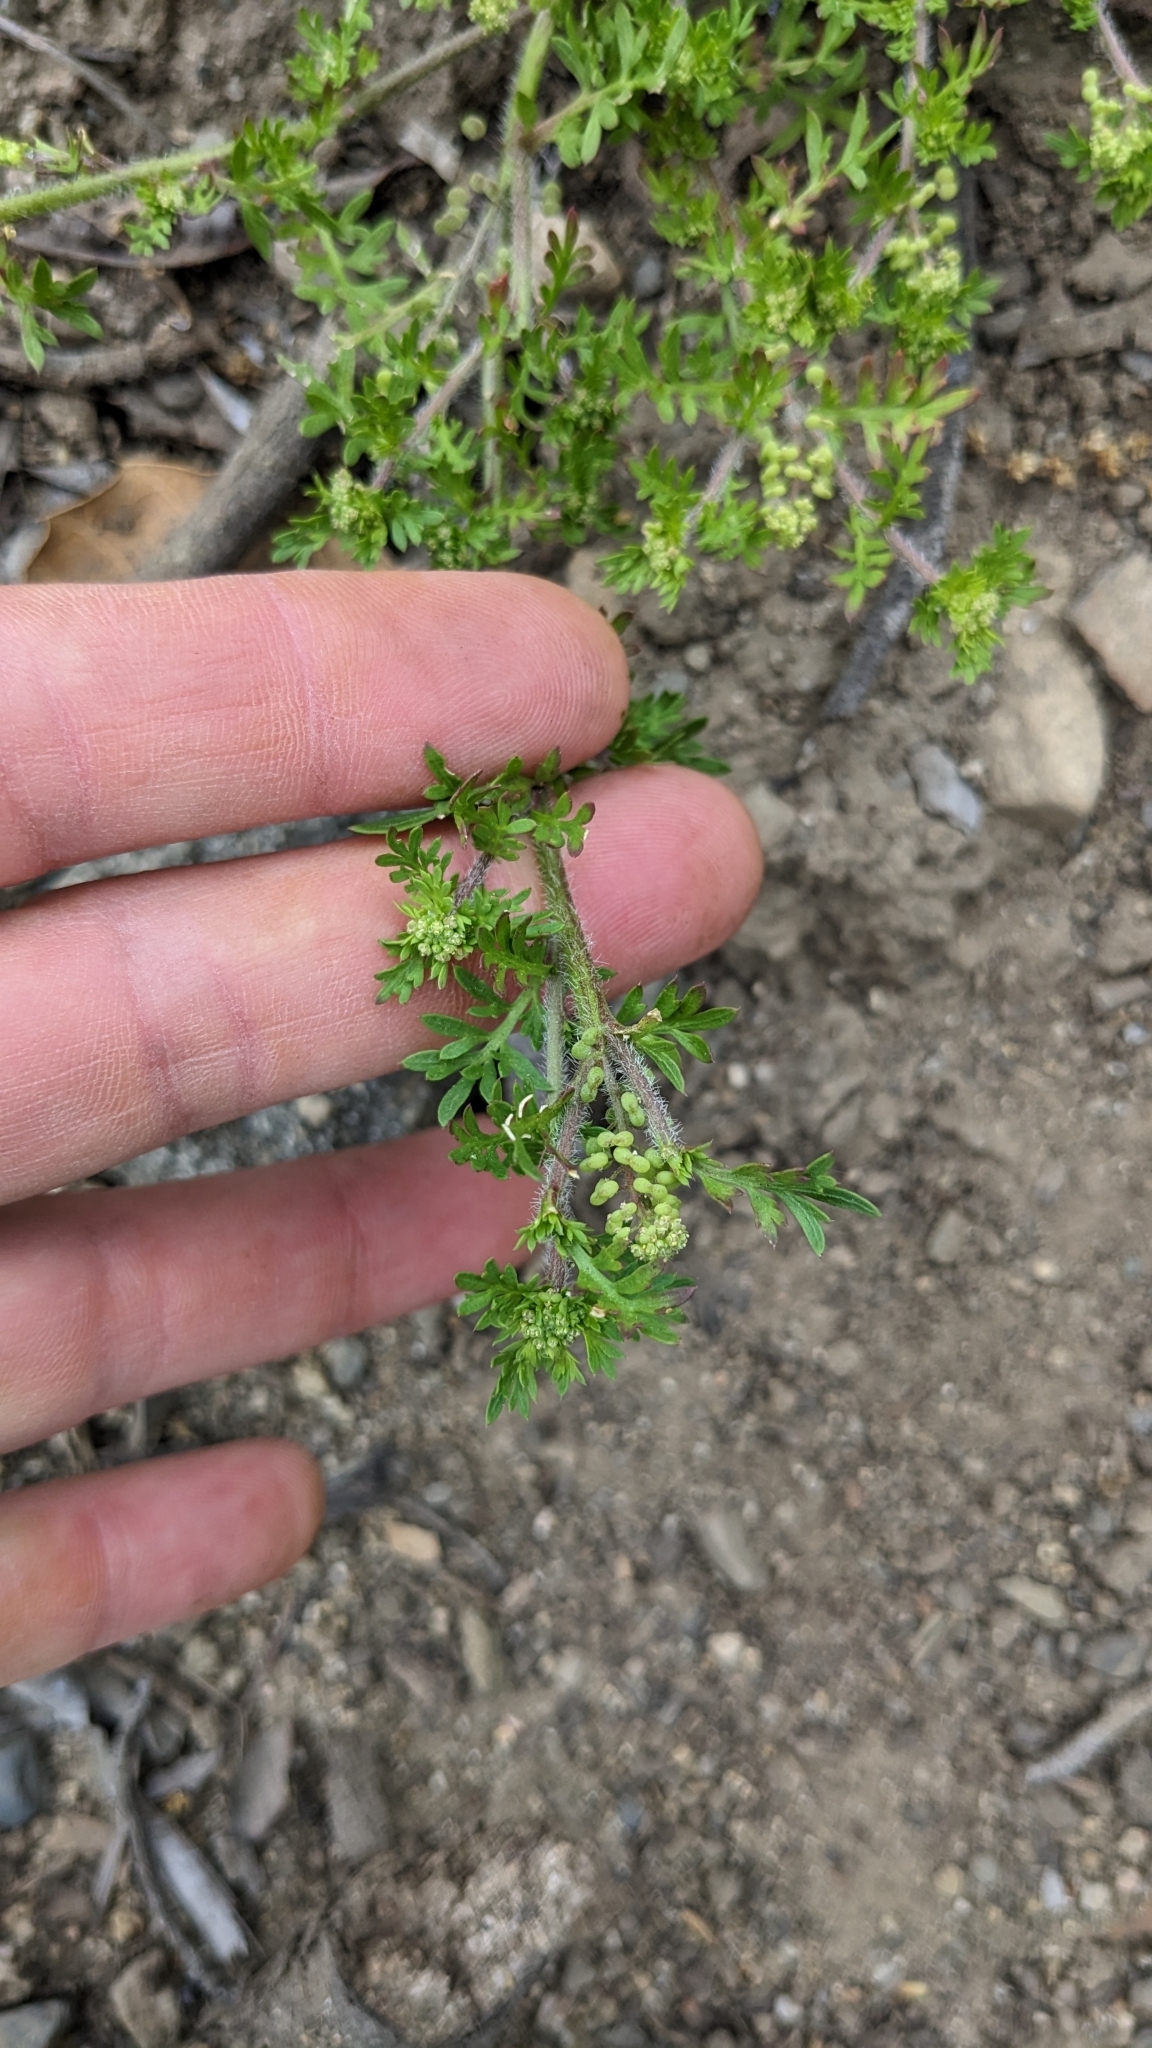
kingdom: Plantae
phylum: Tracheophyta
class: Magnoliopsida
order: Brassicales
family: Brassicaceae
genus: Lepidium
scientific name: Lepidium didymum
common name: Lesser swinecress
